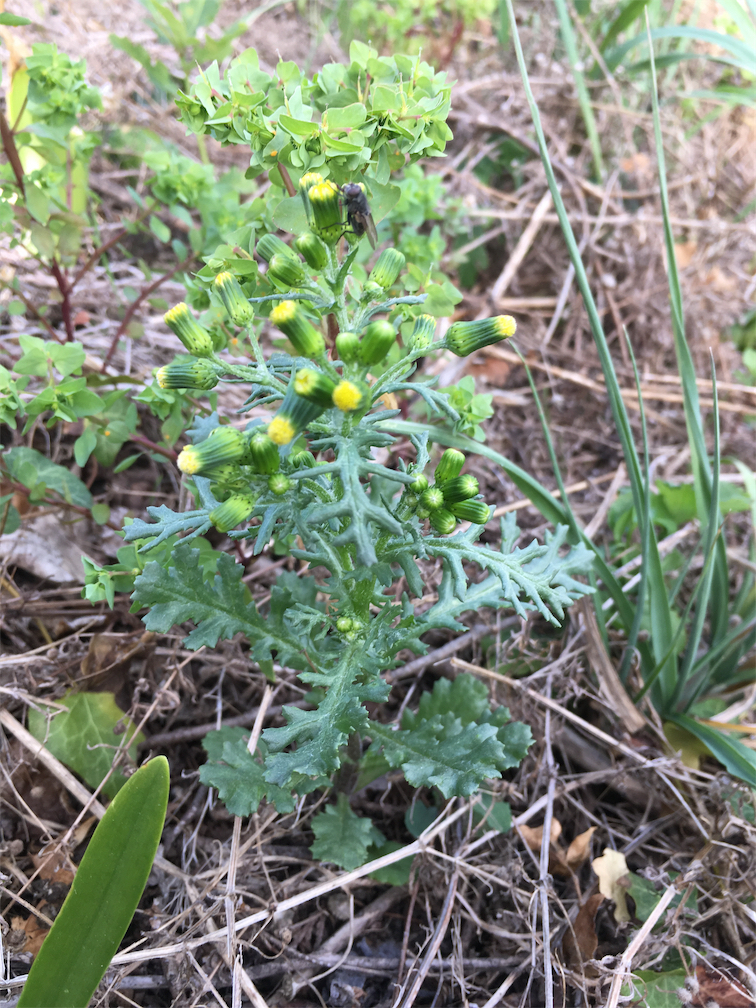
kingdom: Plantae
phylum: Tracheophyta
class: Magnoliopsida
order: Asterales
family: Asteraceae
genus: Senecio
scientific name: Senecio vulgaris
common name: Old-man-in-the-spring
